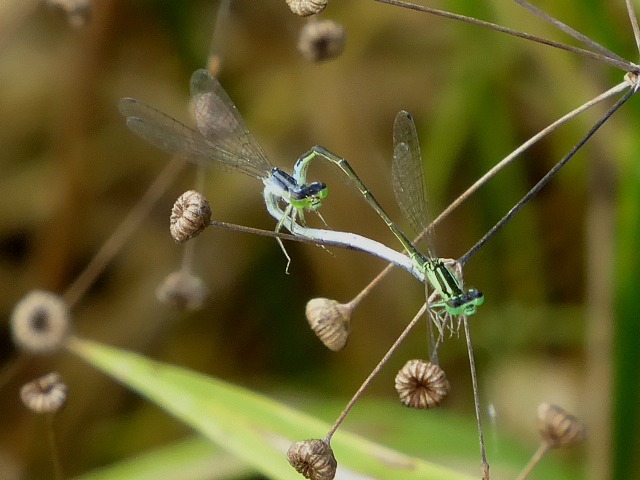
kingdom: Animalia
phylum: Arthropoda
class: Insecta
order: Odonata
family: Coenagrionidae
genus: Ischnura
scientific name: Ischnura verticalis
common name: Eastern forktail
